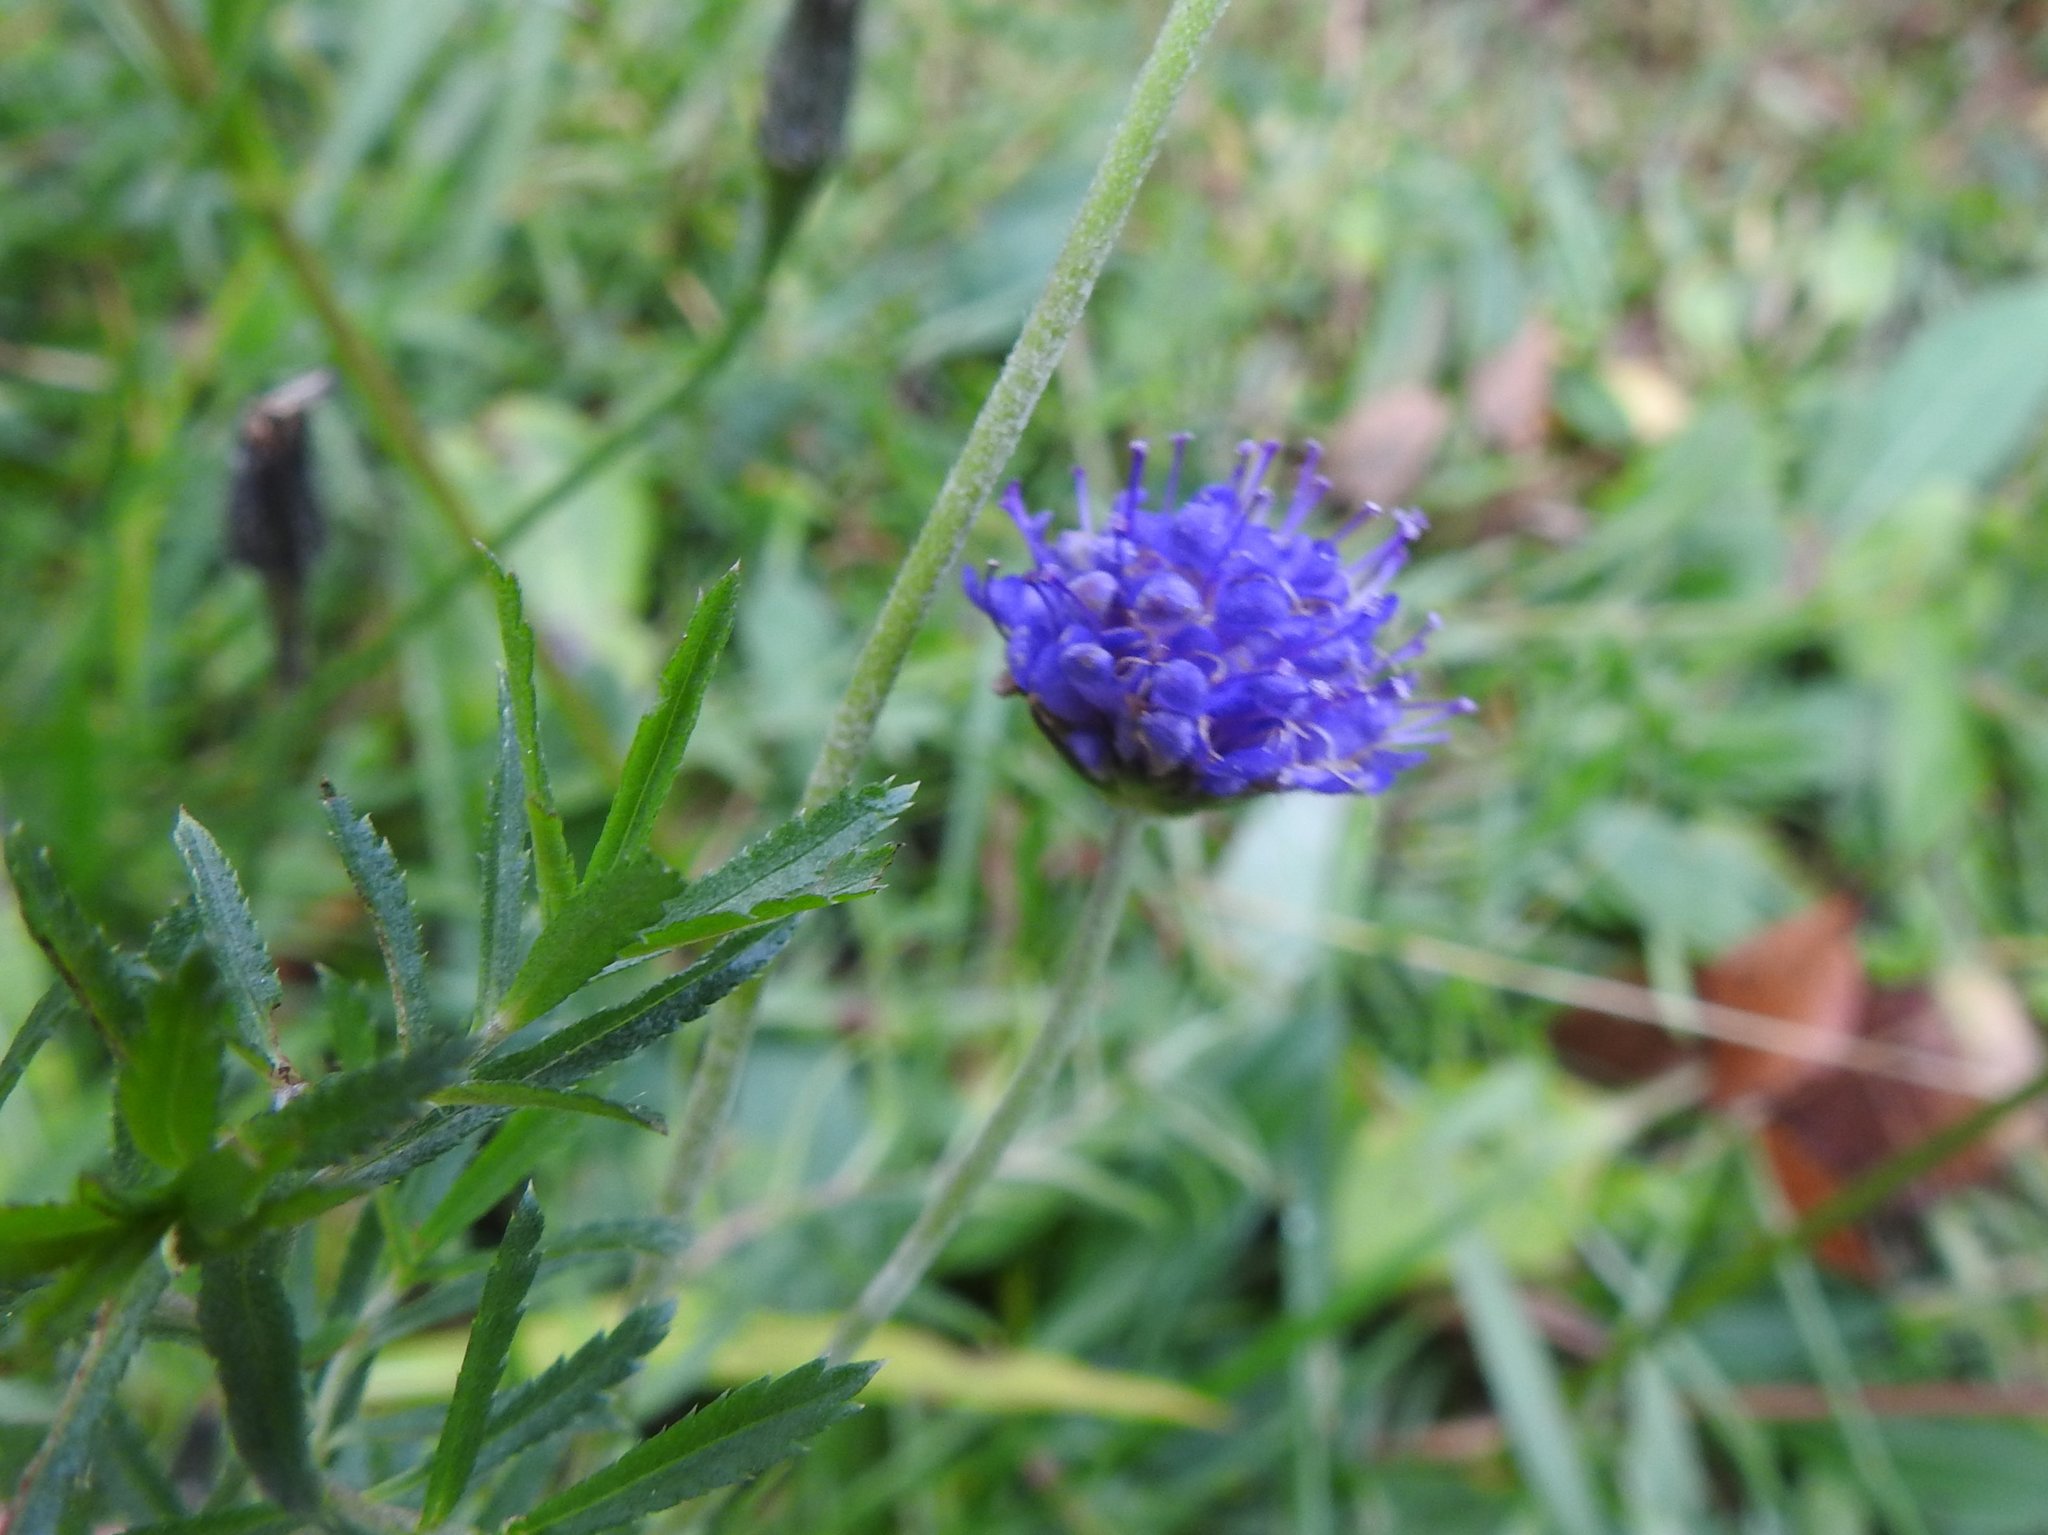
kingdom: Plantae
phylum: Tracheophyta
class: Magnoliopsida
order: Dipsacales
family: Caprifoliaceae
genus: Succisa
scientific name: Succisa pratensis
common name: Devil's-bit
